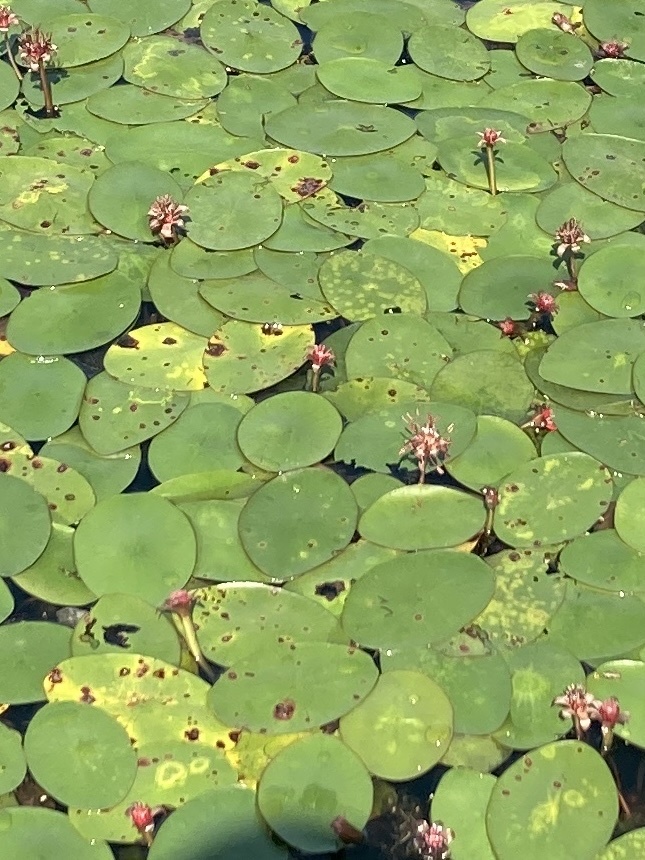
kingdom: Plantae
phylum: Tracheophyta
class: Magnoliopsida
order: Nymphaeales
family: Cabombaceae
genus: Brasenia
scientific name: Brasenia schreberi
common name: Water-shield
